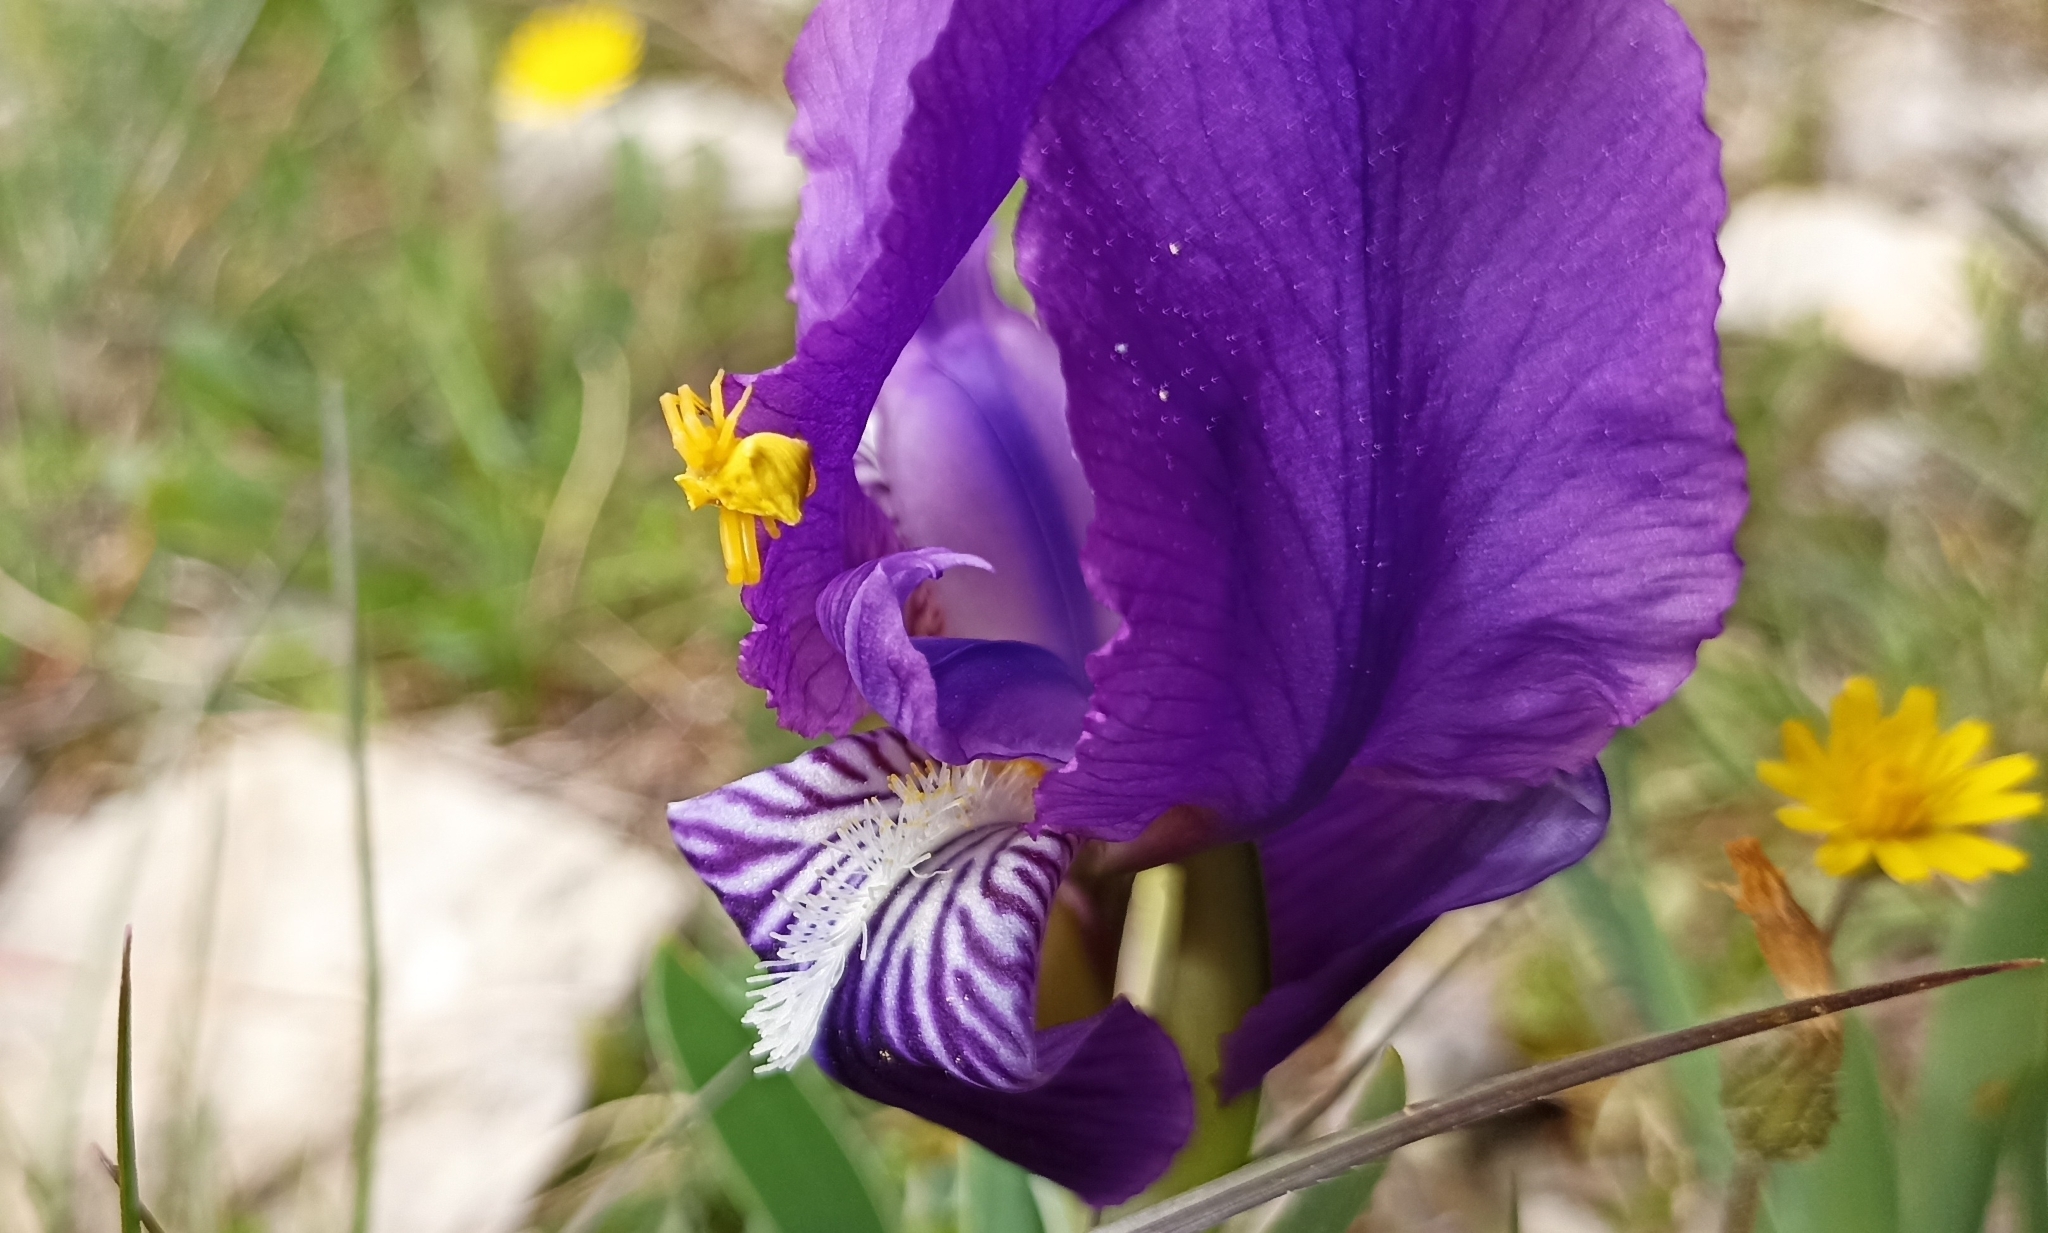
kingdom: Animalia
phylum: Arthropoda
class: Arachnida
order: Araneae
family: Thomisidae
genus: Thomisus
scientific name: Thomisus onustus
